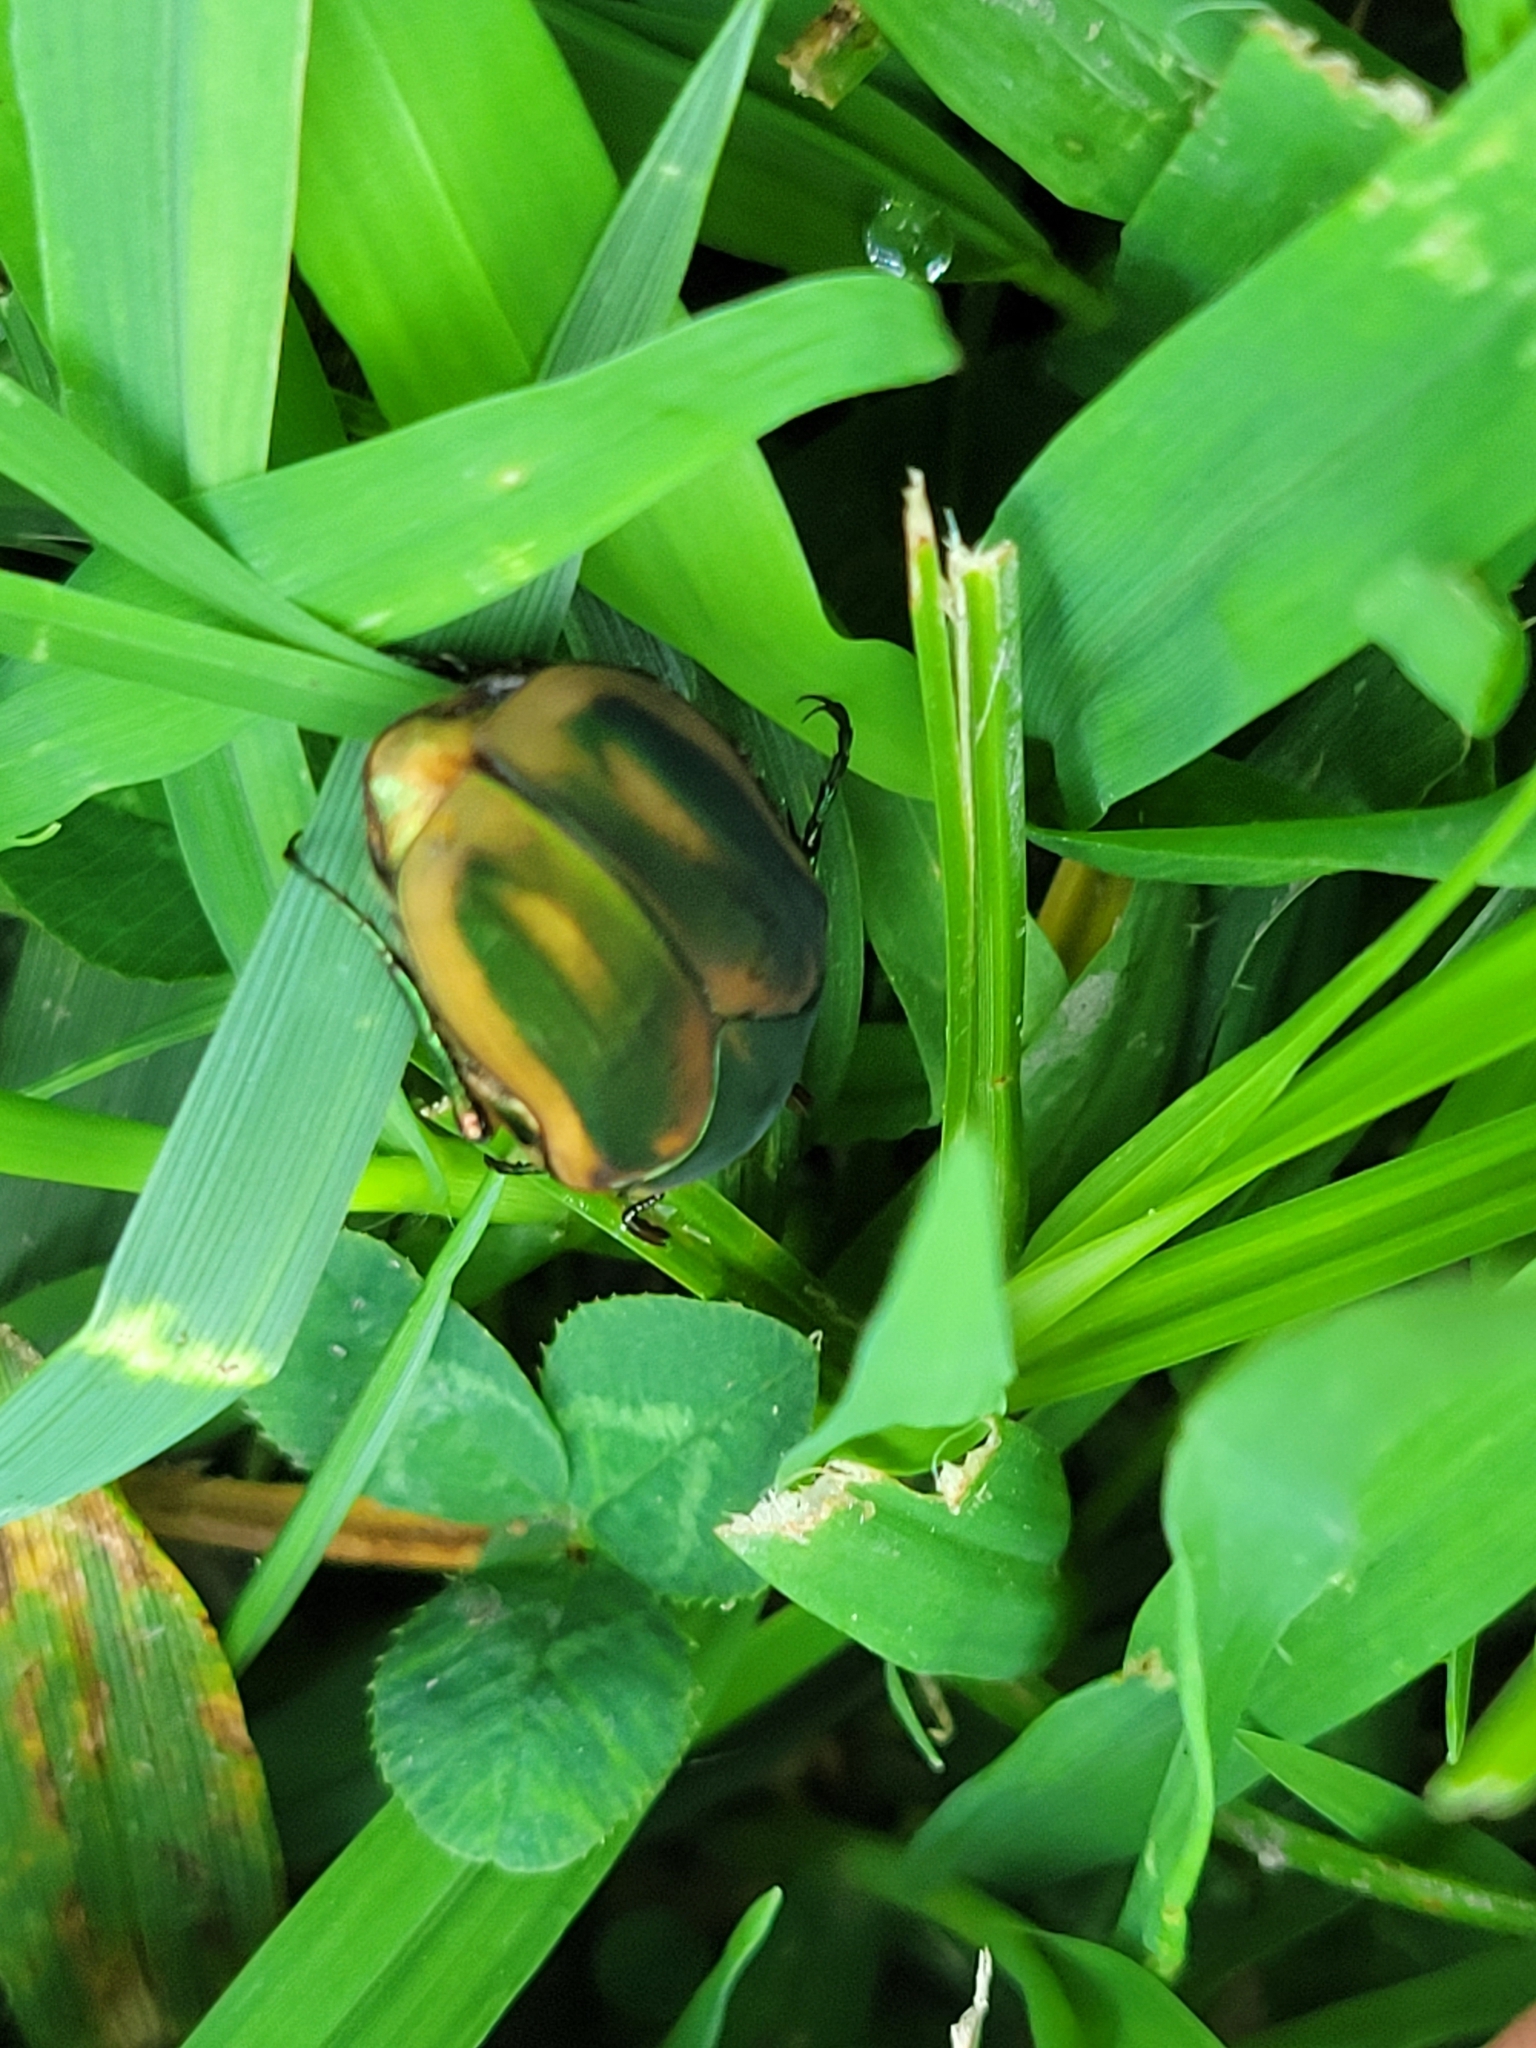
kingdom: Animalia
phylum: Arthropoda
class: Insecta
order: Coleoptera
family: Scarabaeidae
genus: Cotinis
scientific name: Cotinis nitida
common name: Common green june beetle
